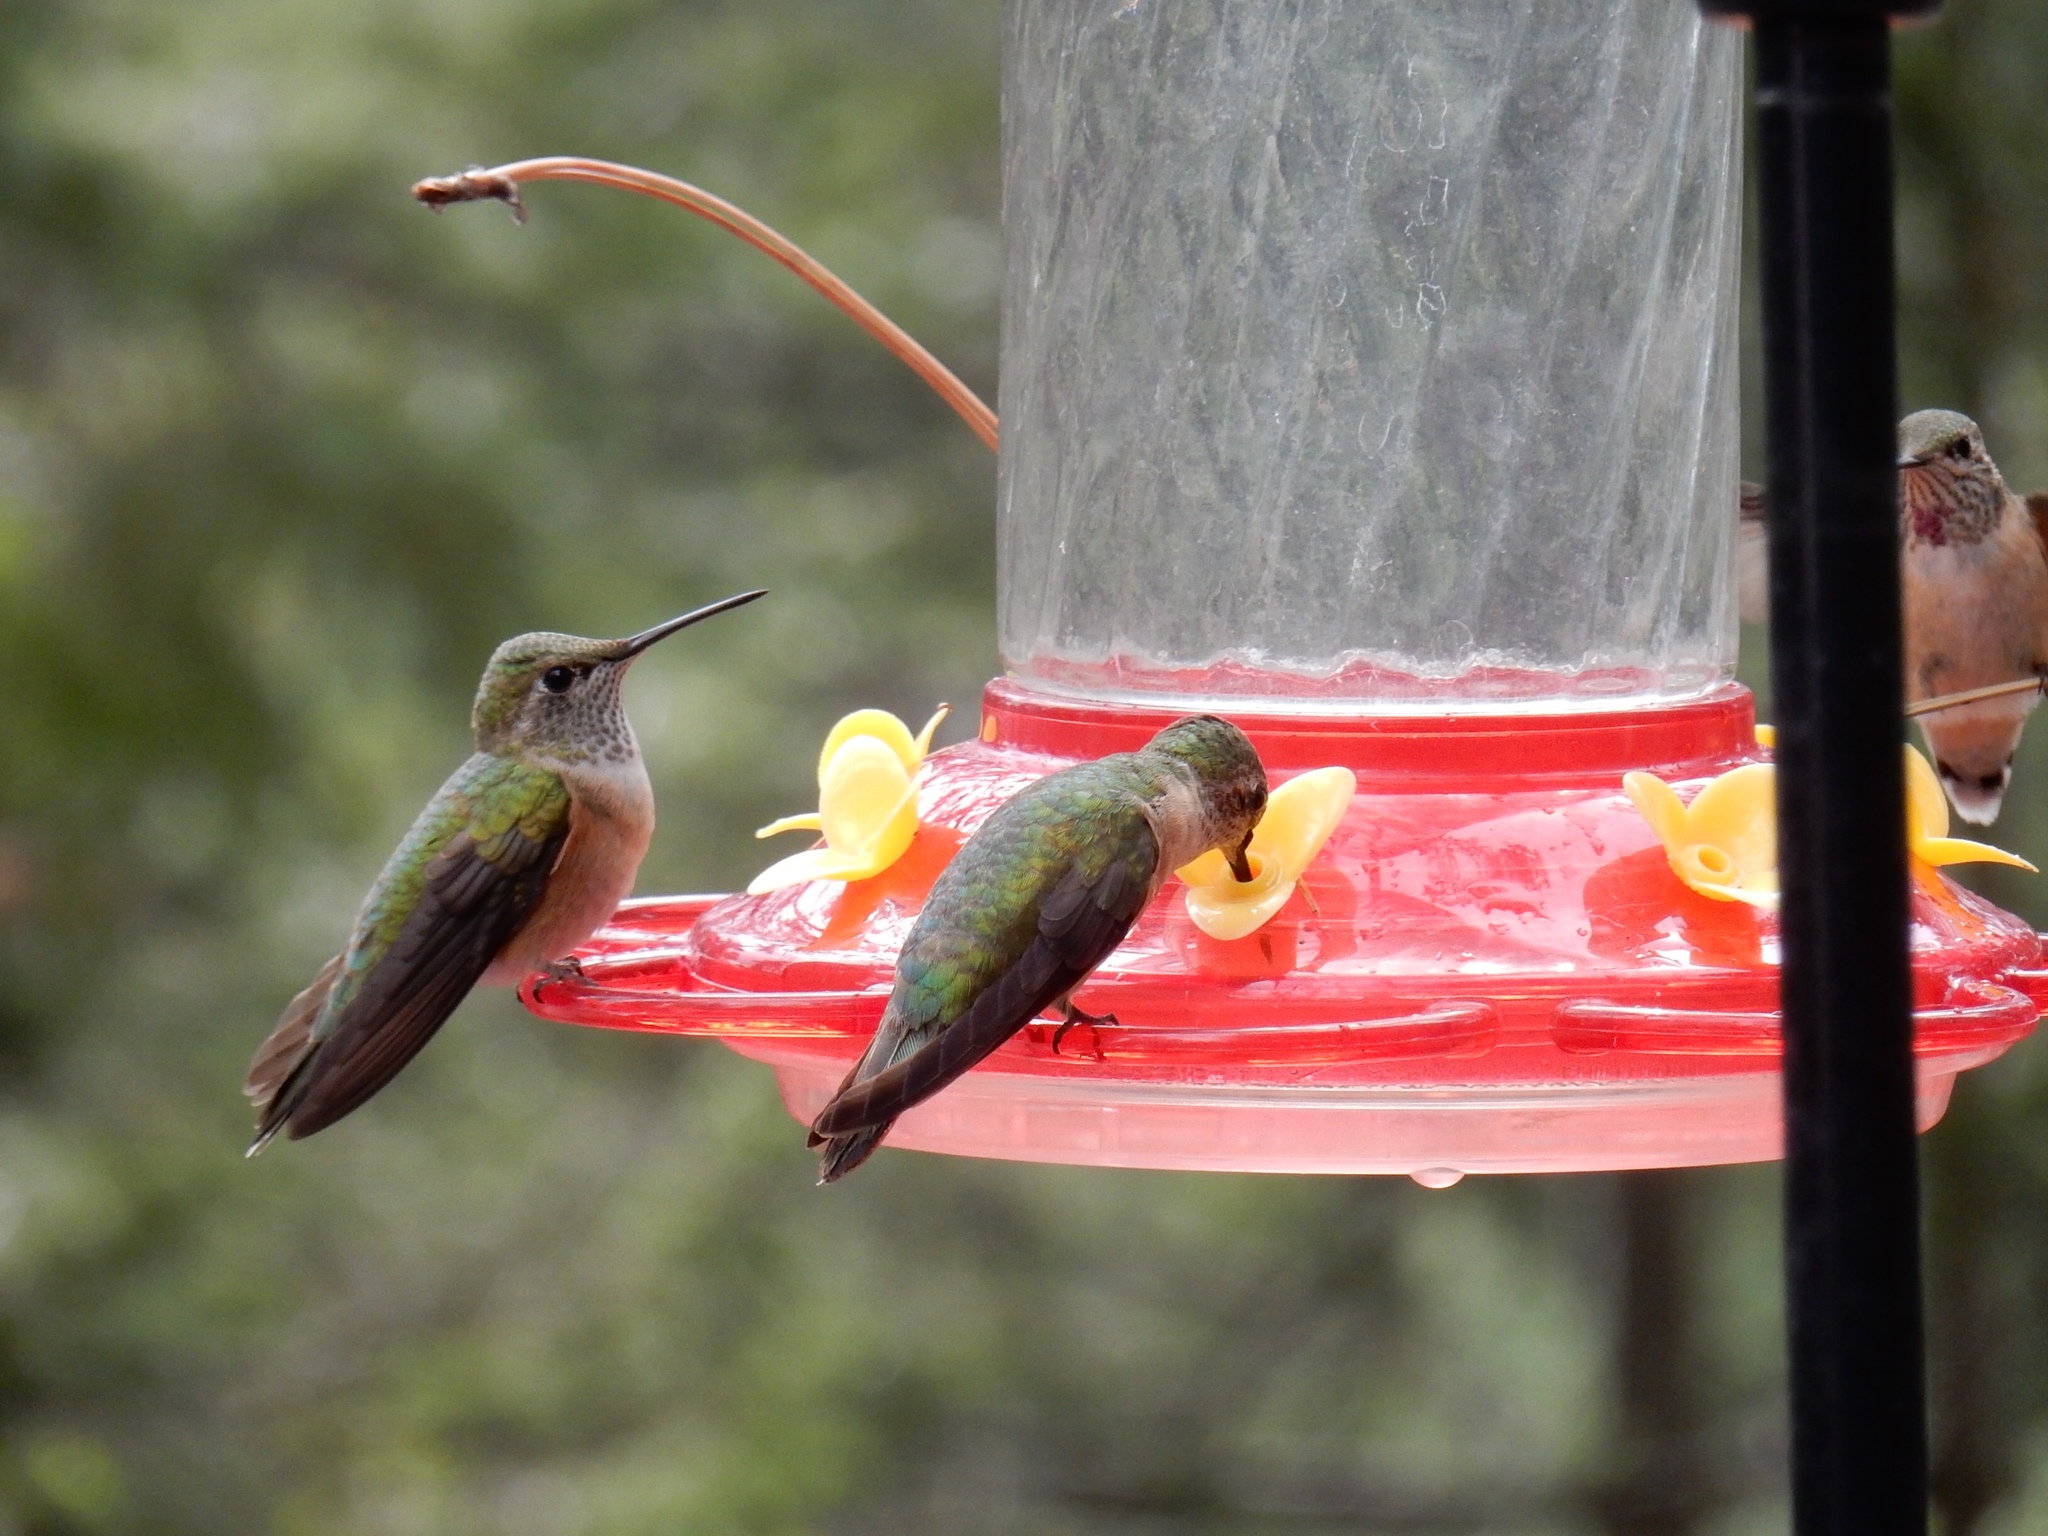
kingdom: Animalia
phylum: Chordata
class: Aves
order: Apodiformes
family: Trochilidae
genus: Selasphorus
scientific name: Selasphorus platycercus
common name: Broad-tailed hummingbird
